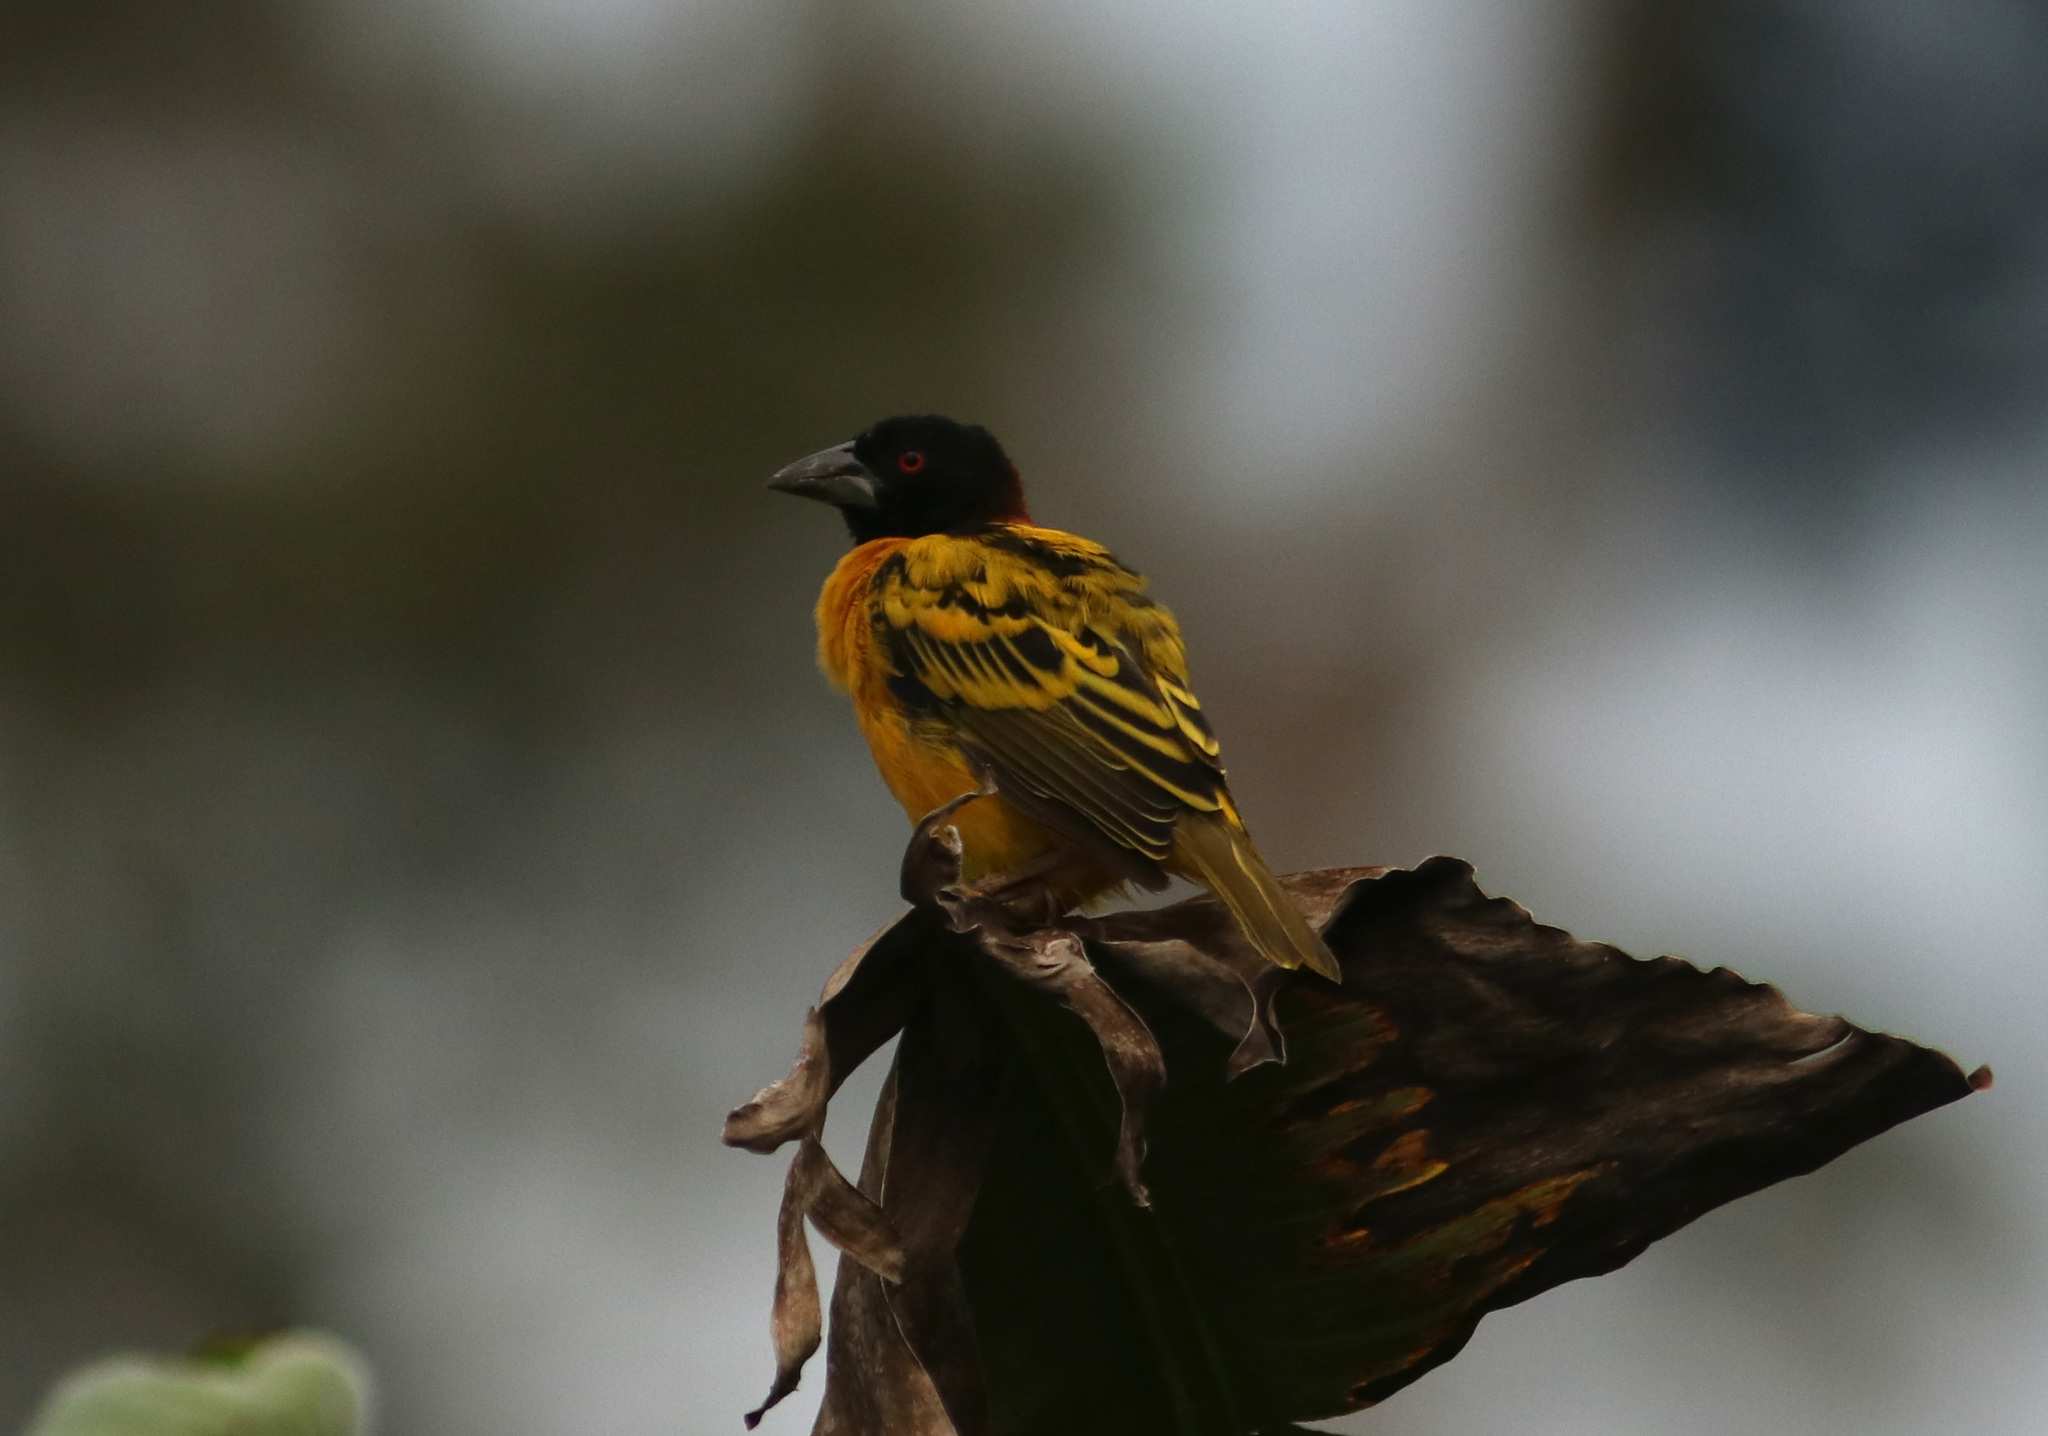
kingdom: Animalia
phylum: Chordata
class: Aves
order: Passeriformes
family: Ploceidae
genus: Ploceus
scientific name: Ploceus cucullatus
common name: Village weaver
